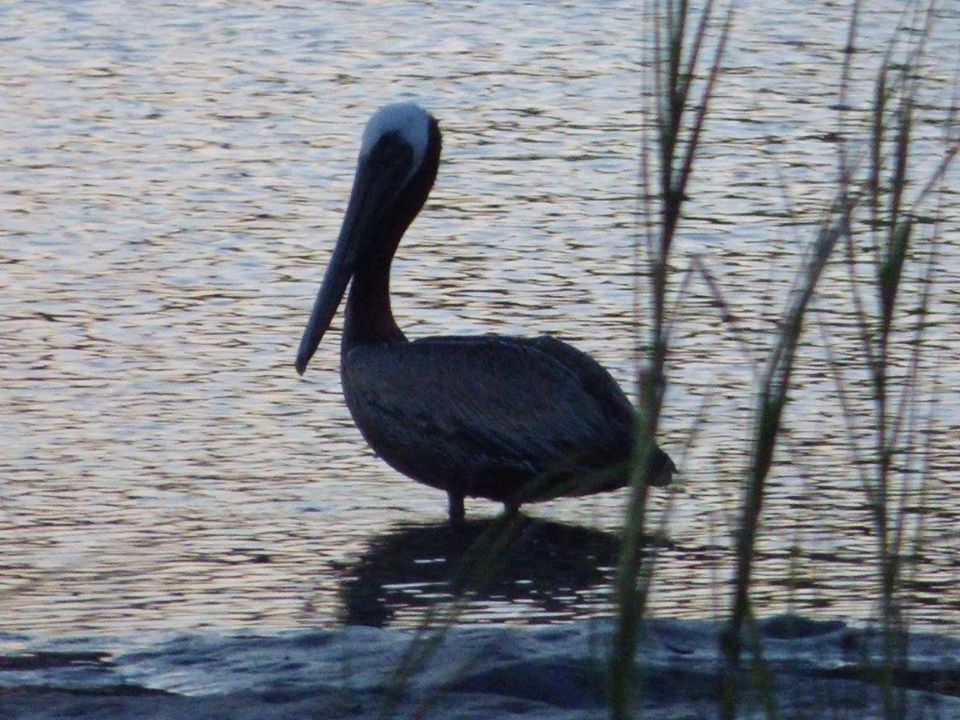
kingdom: Animalia
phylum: Chordata
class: Aves
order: Pelecaniformes
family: Pelecanidae
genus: Pelecanus
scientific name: Pelecanus occidentalis
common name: Brown pelican
